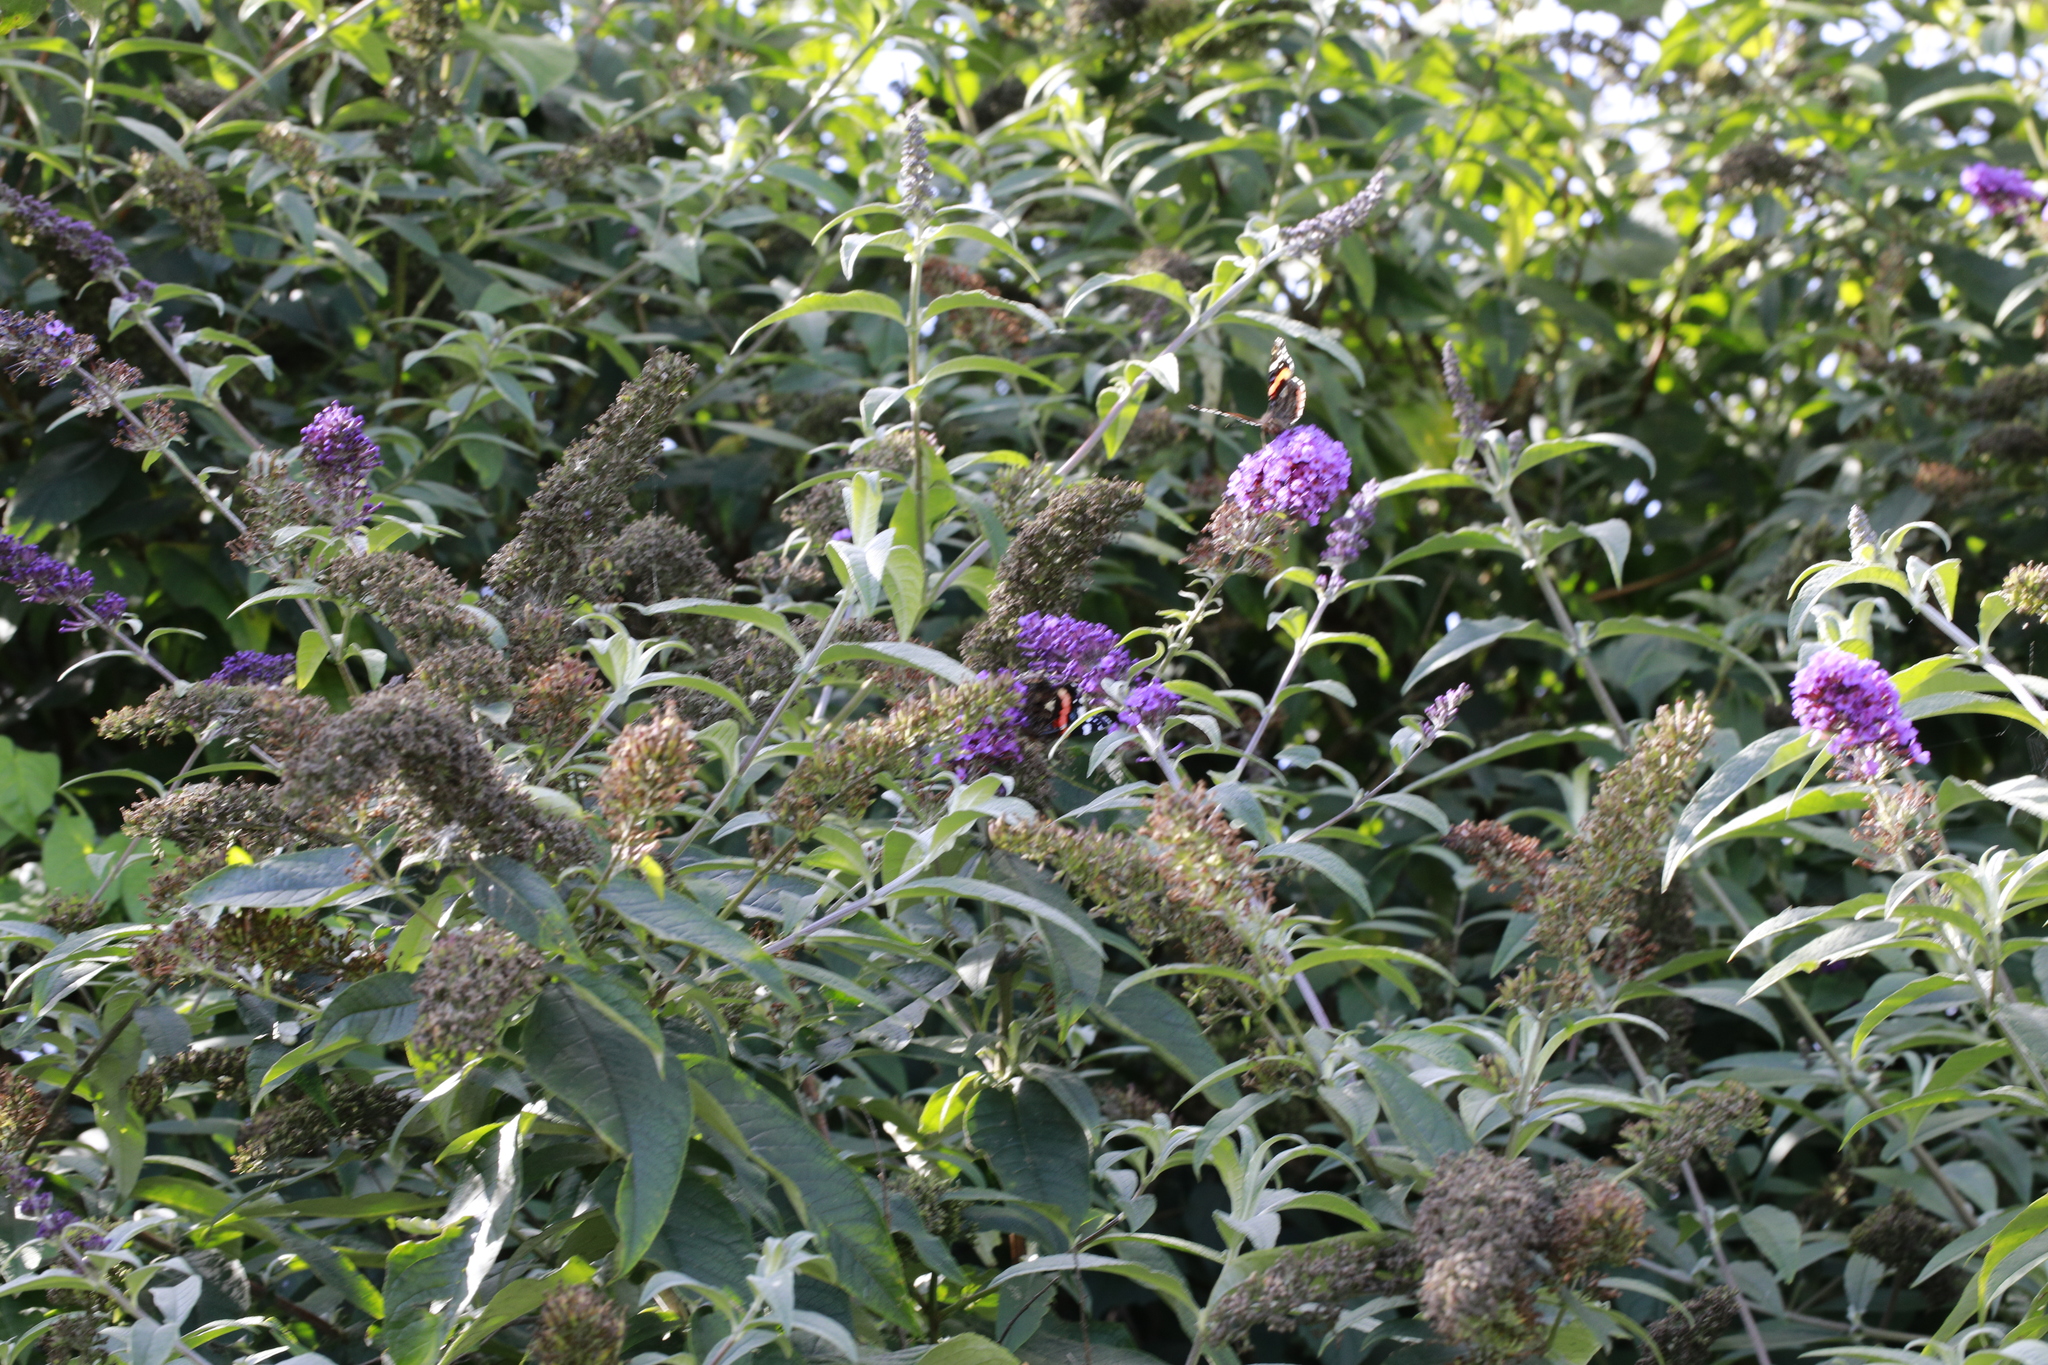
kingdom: Animalia
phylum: Arthropoda
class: Insecta
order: Lepidoptera
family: Nymphalidae
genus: Vanessa
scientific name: Vanessa atalanta
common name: Red admiral
